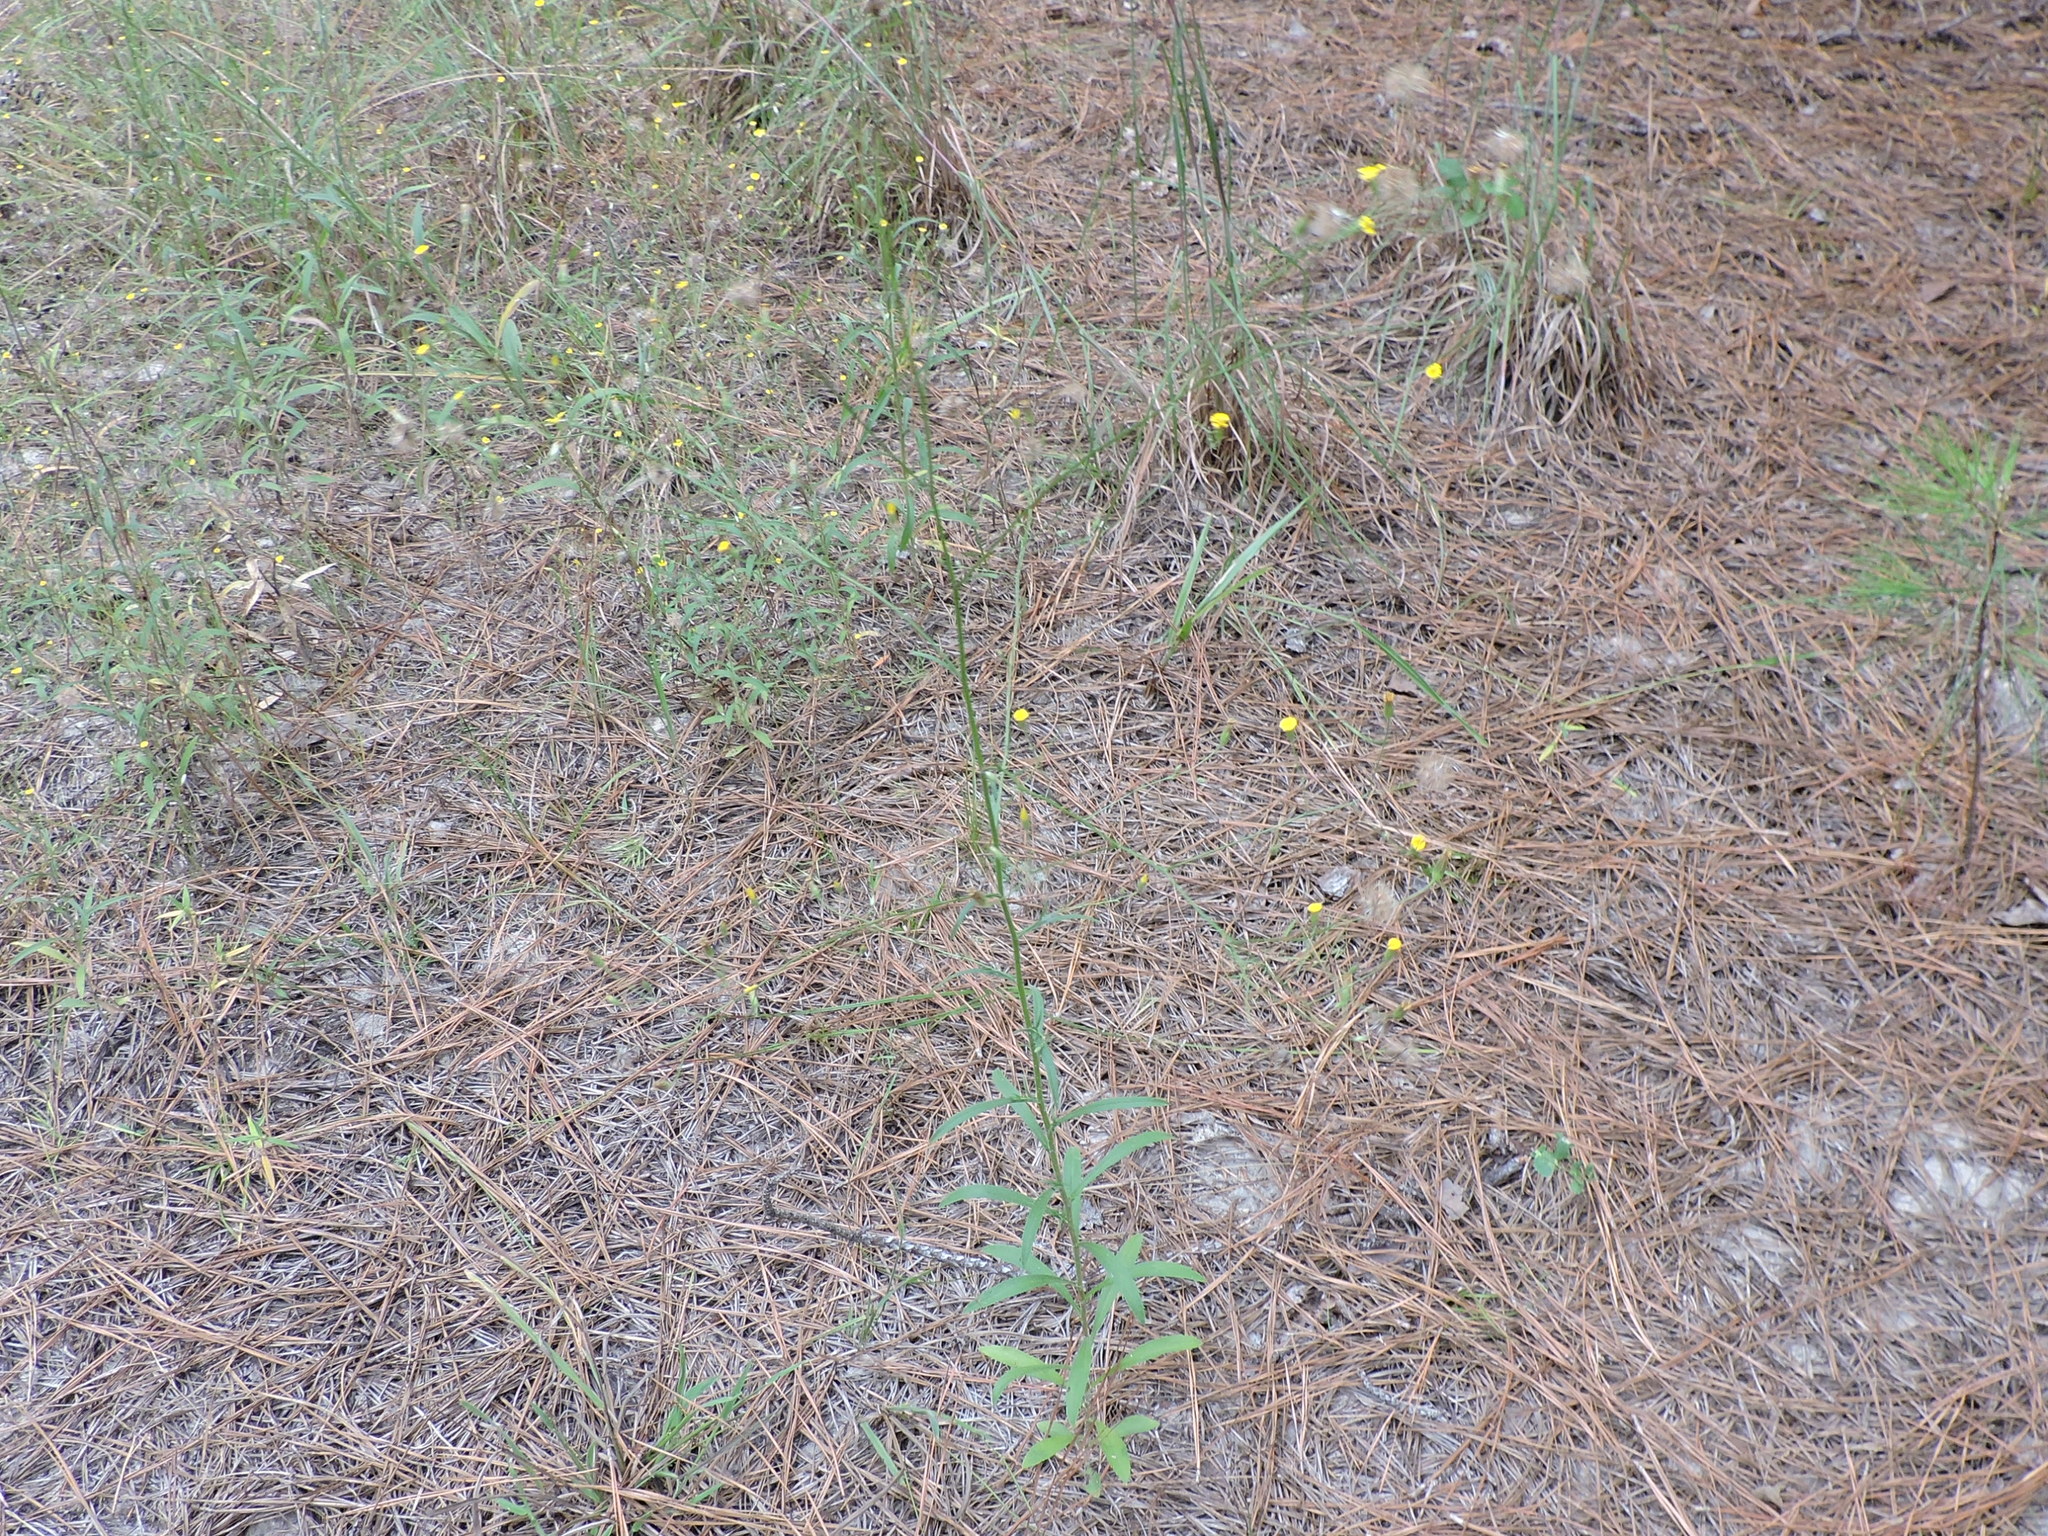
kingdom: Plantae
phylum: Tracheophyta
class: Magnoliopsida
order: Asterales
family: Asteraceae
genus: Croptilon
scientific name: Croptilon divaricatum
